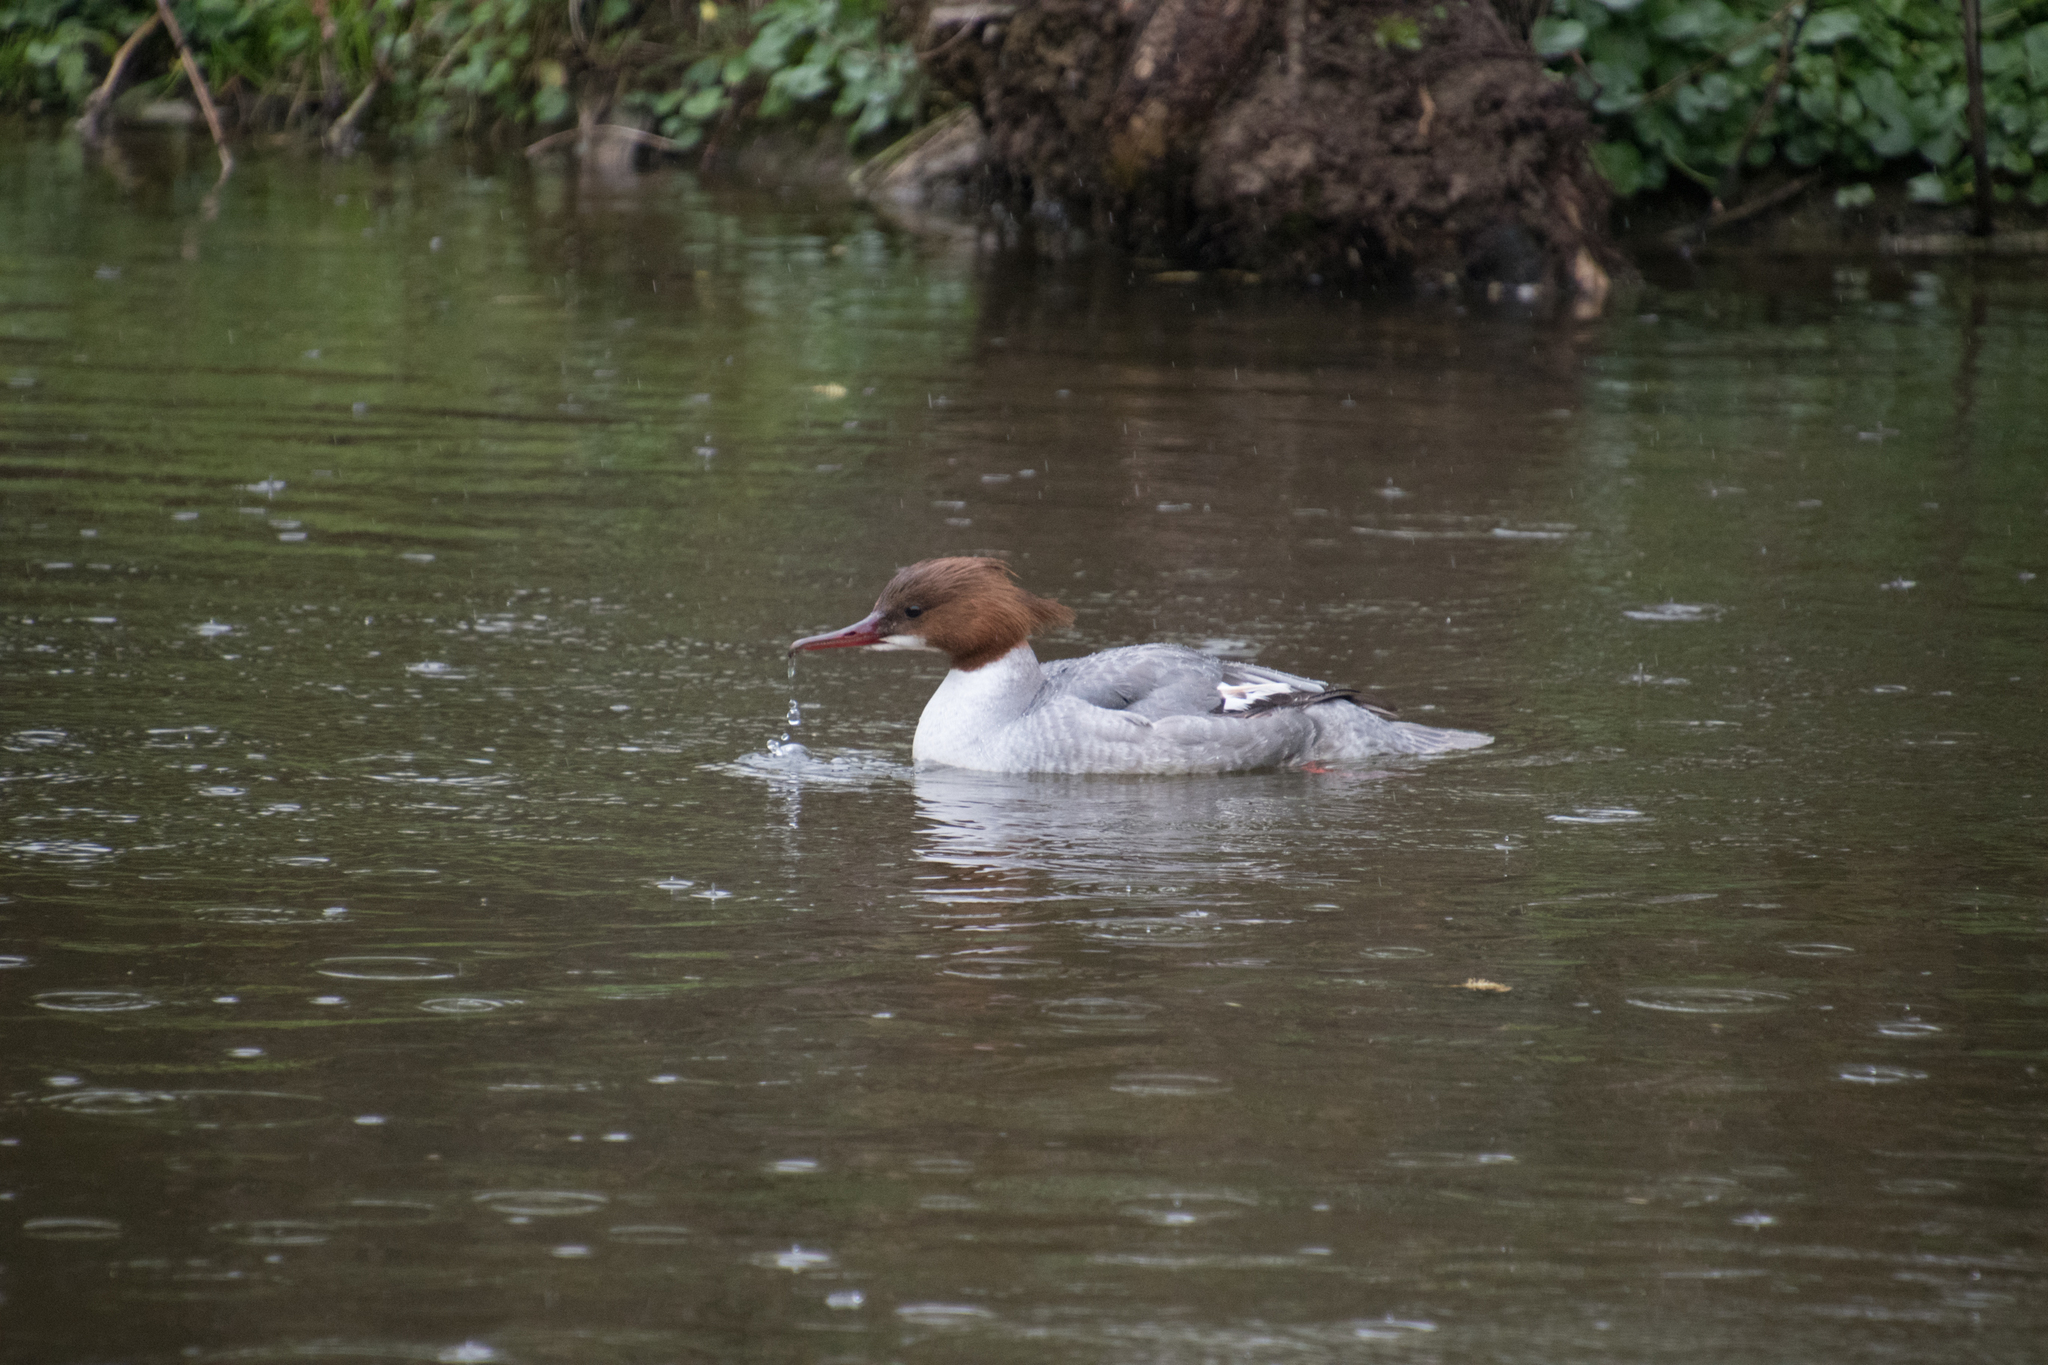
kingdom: Animalia
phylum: Chordata
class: Aves
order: Anseriformes
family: Anatidae
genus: Mergus
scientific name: Mergus merganser
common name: Common merganser
